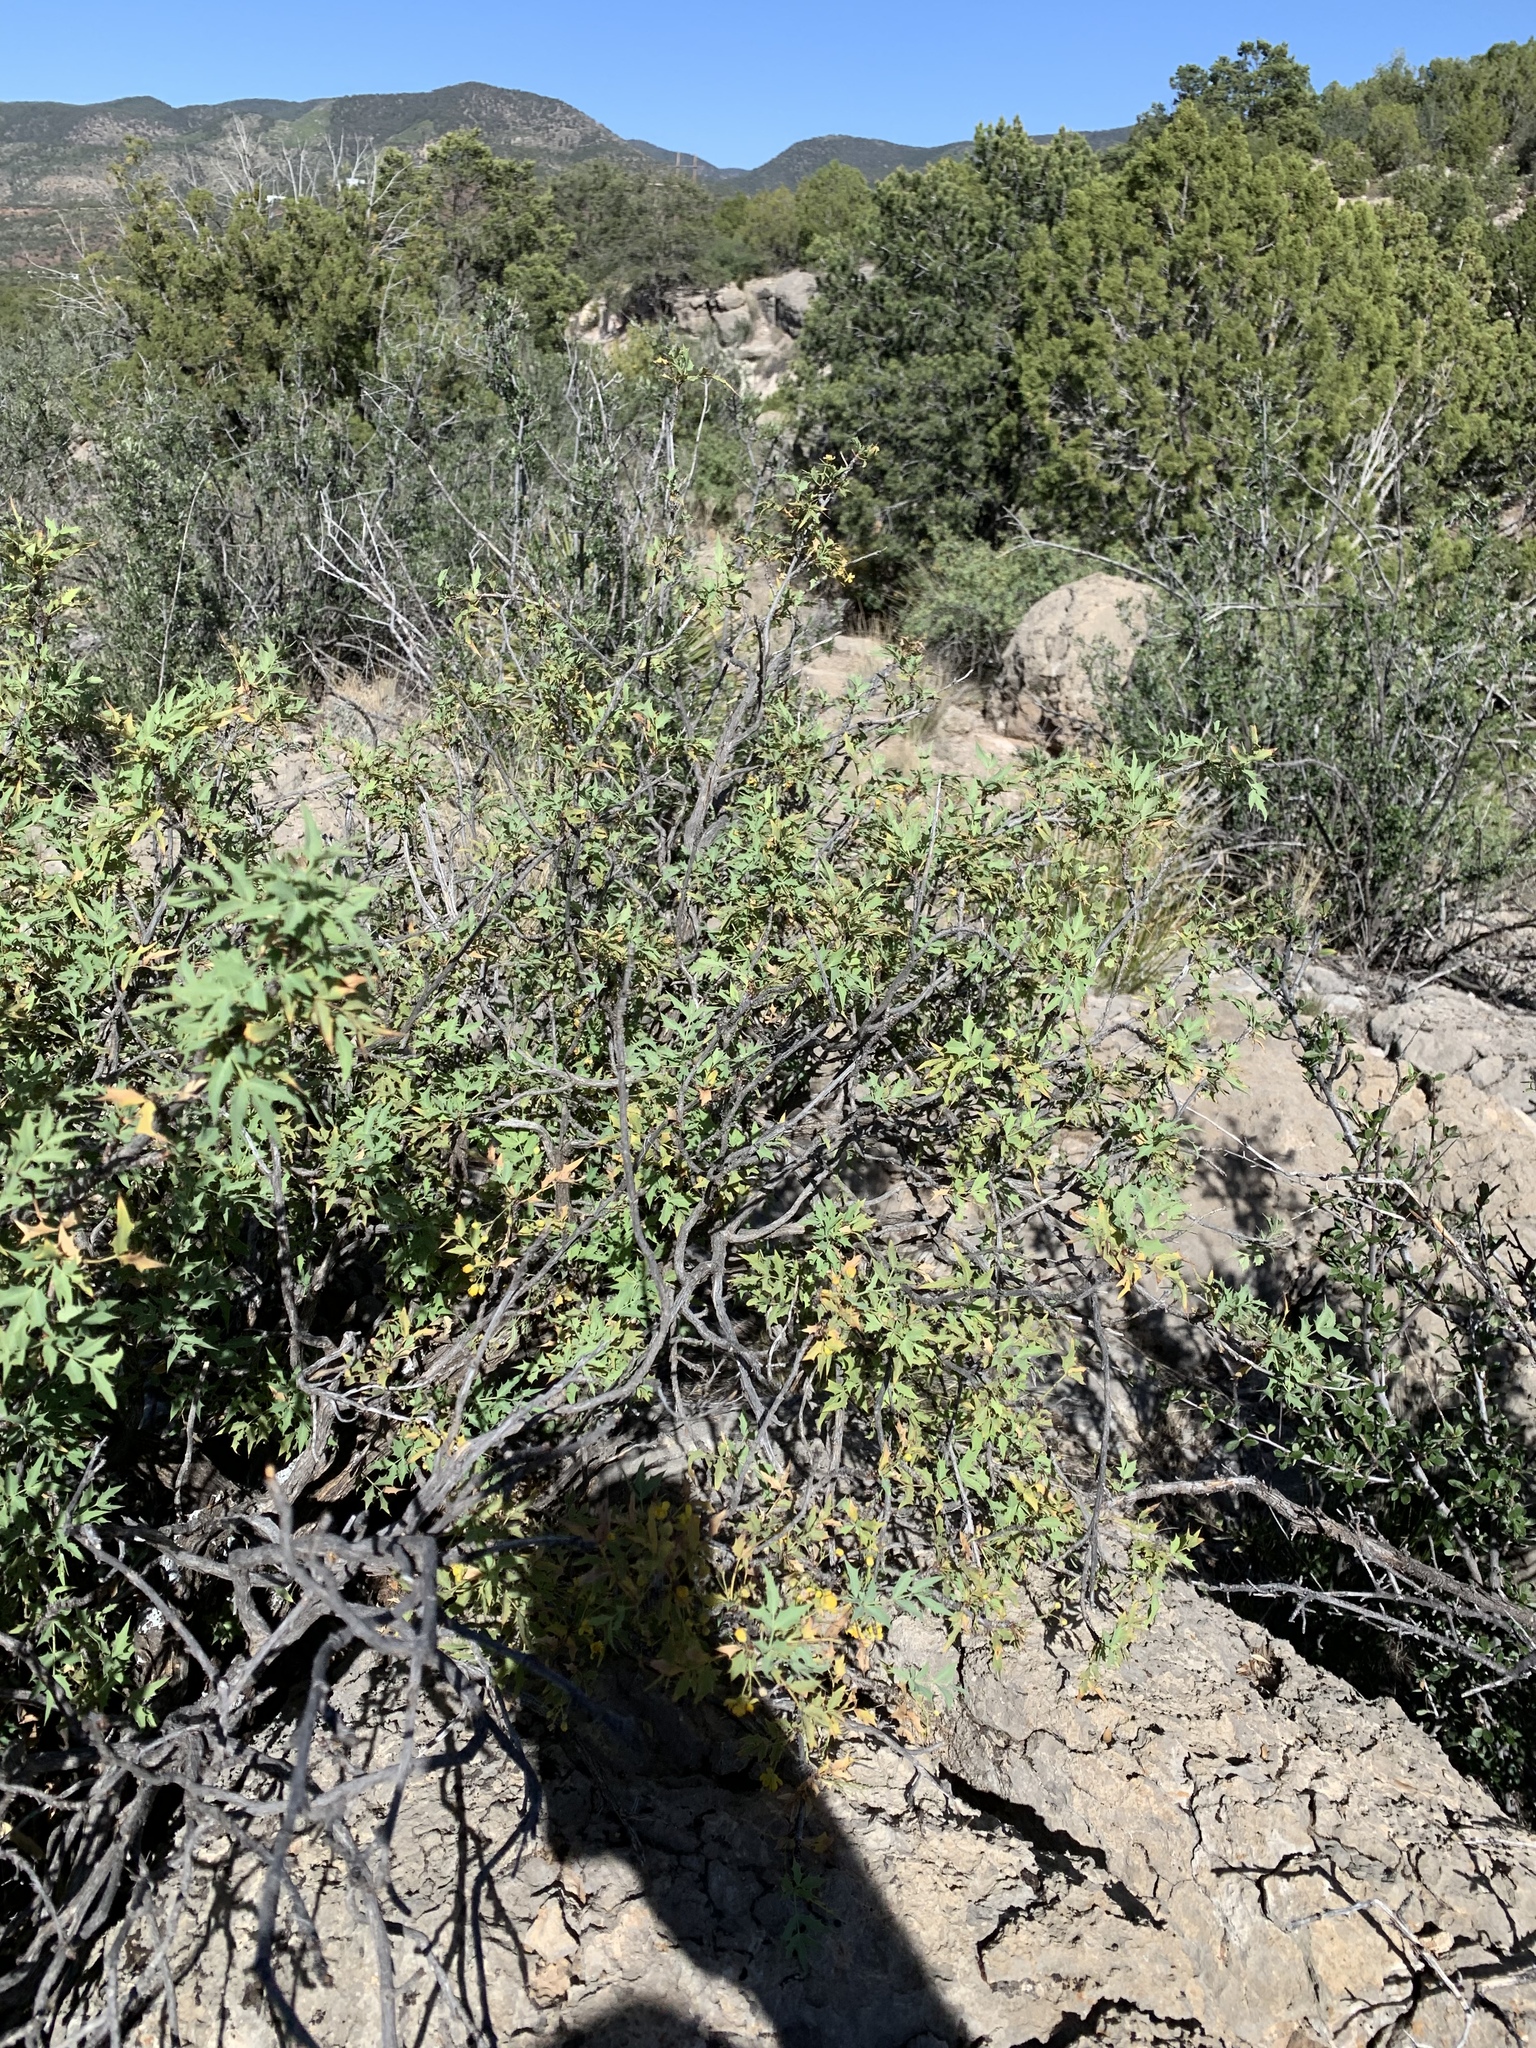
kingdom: Plantae
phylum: Tracheophyta
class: Magnoliopsida
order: Ranunculales
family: Berberidaceae
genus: Alloberberis
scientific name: Alloberberis haematocarpa
